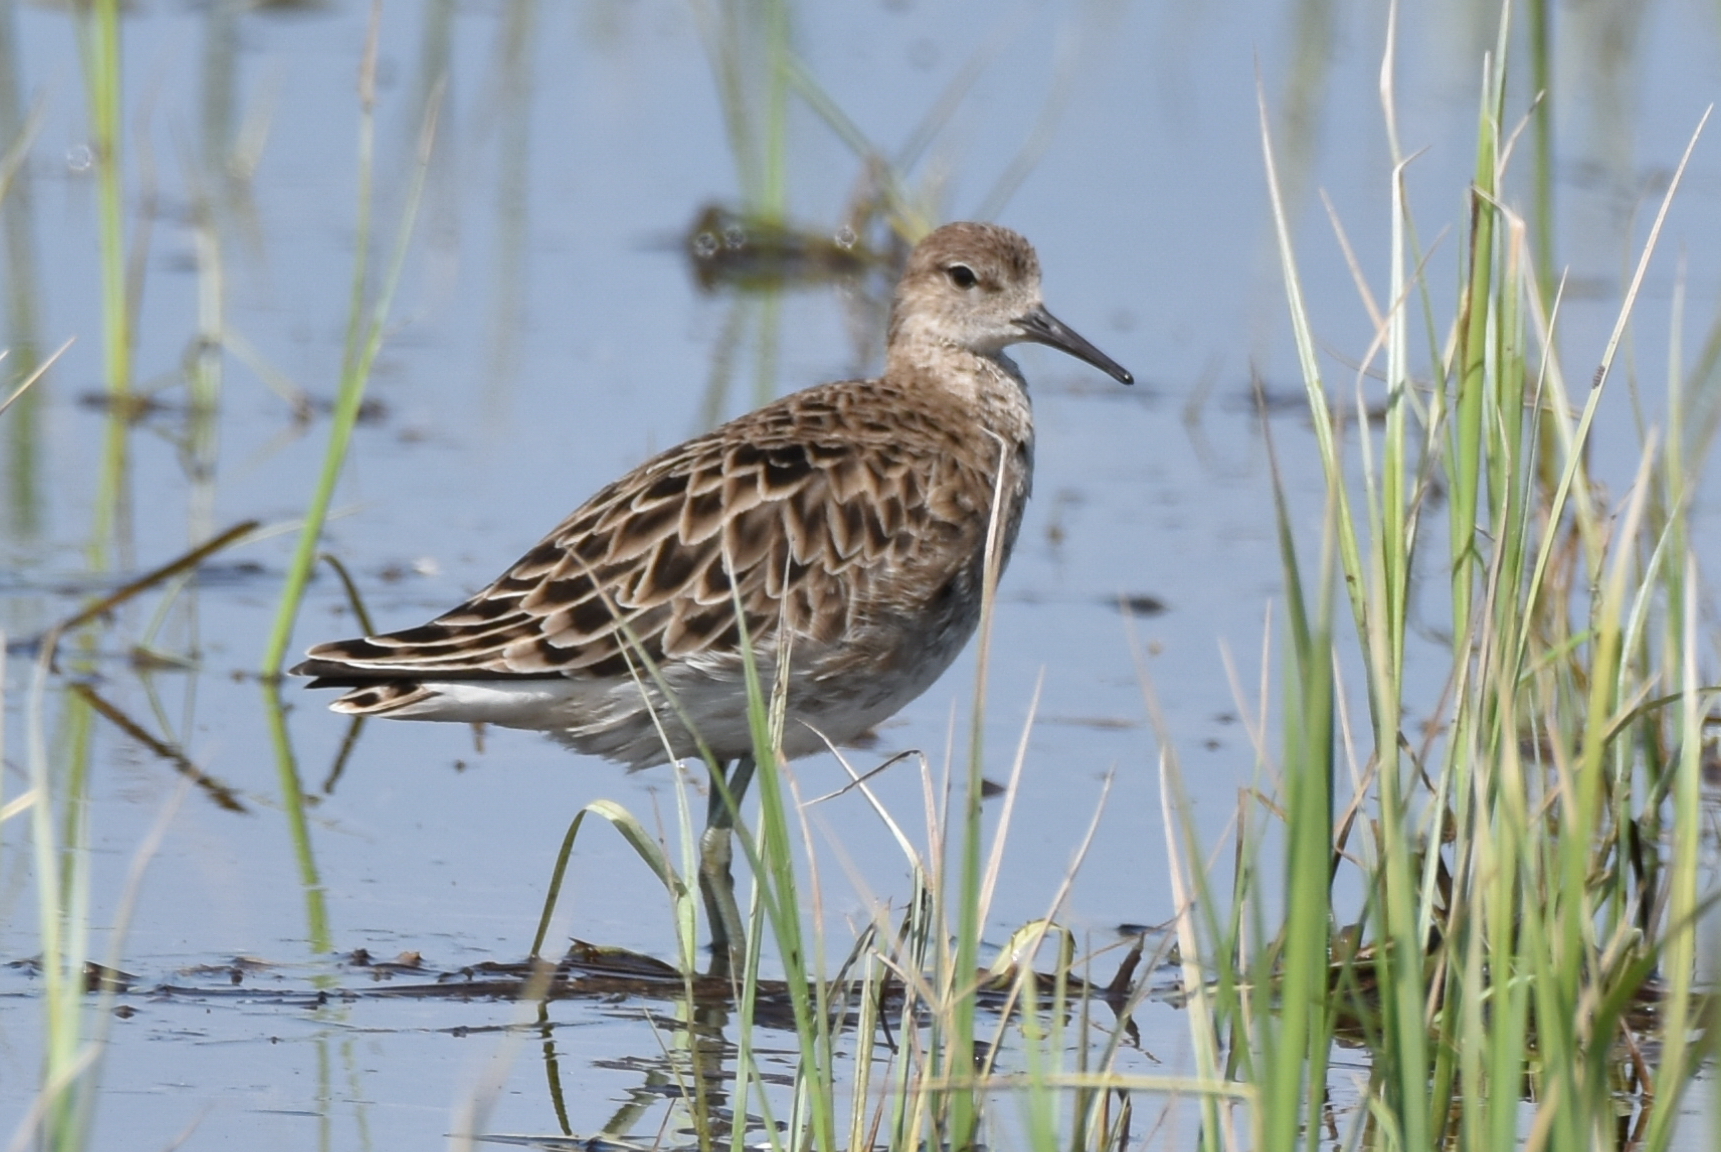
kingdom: Animalia
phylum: Chordata
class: Aves
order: Charadriiformes
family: Scolopacidae
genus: Calidris
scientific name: Calidris pugnax
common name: Ruff
